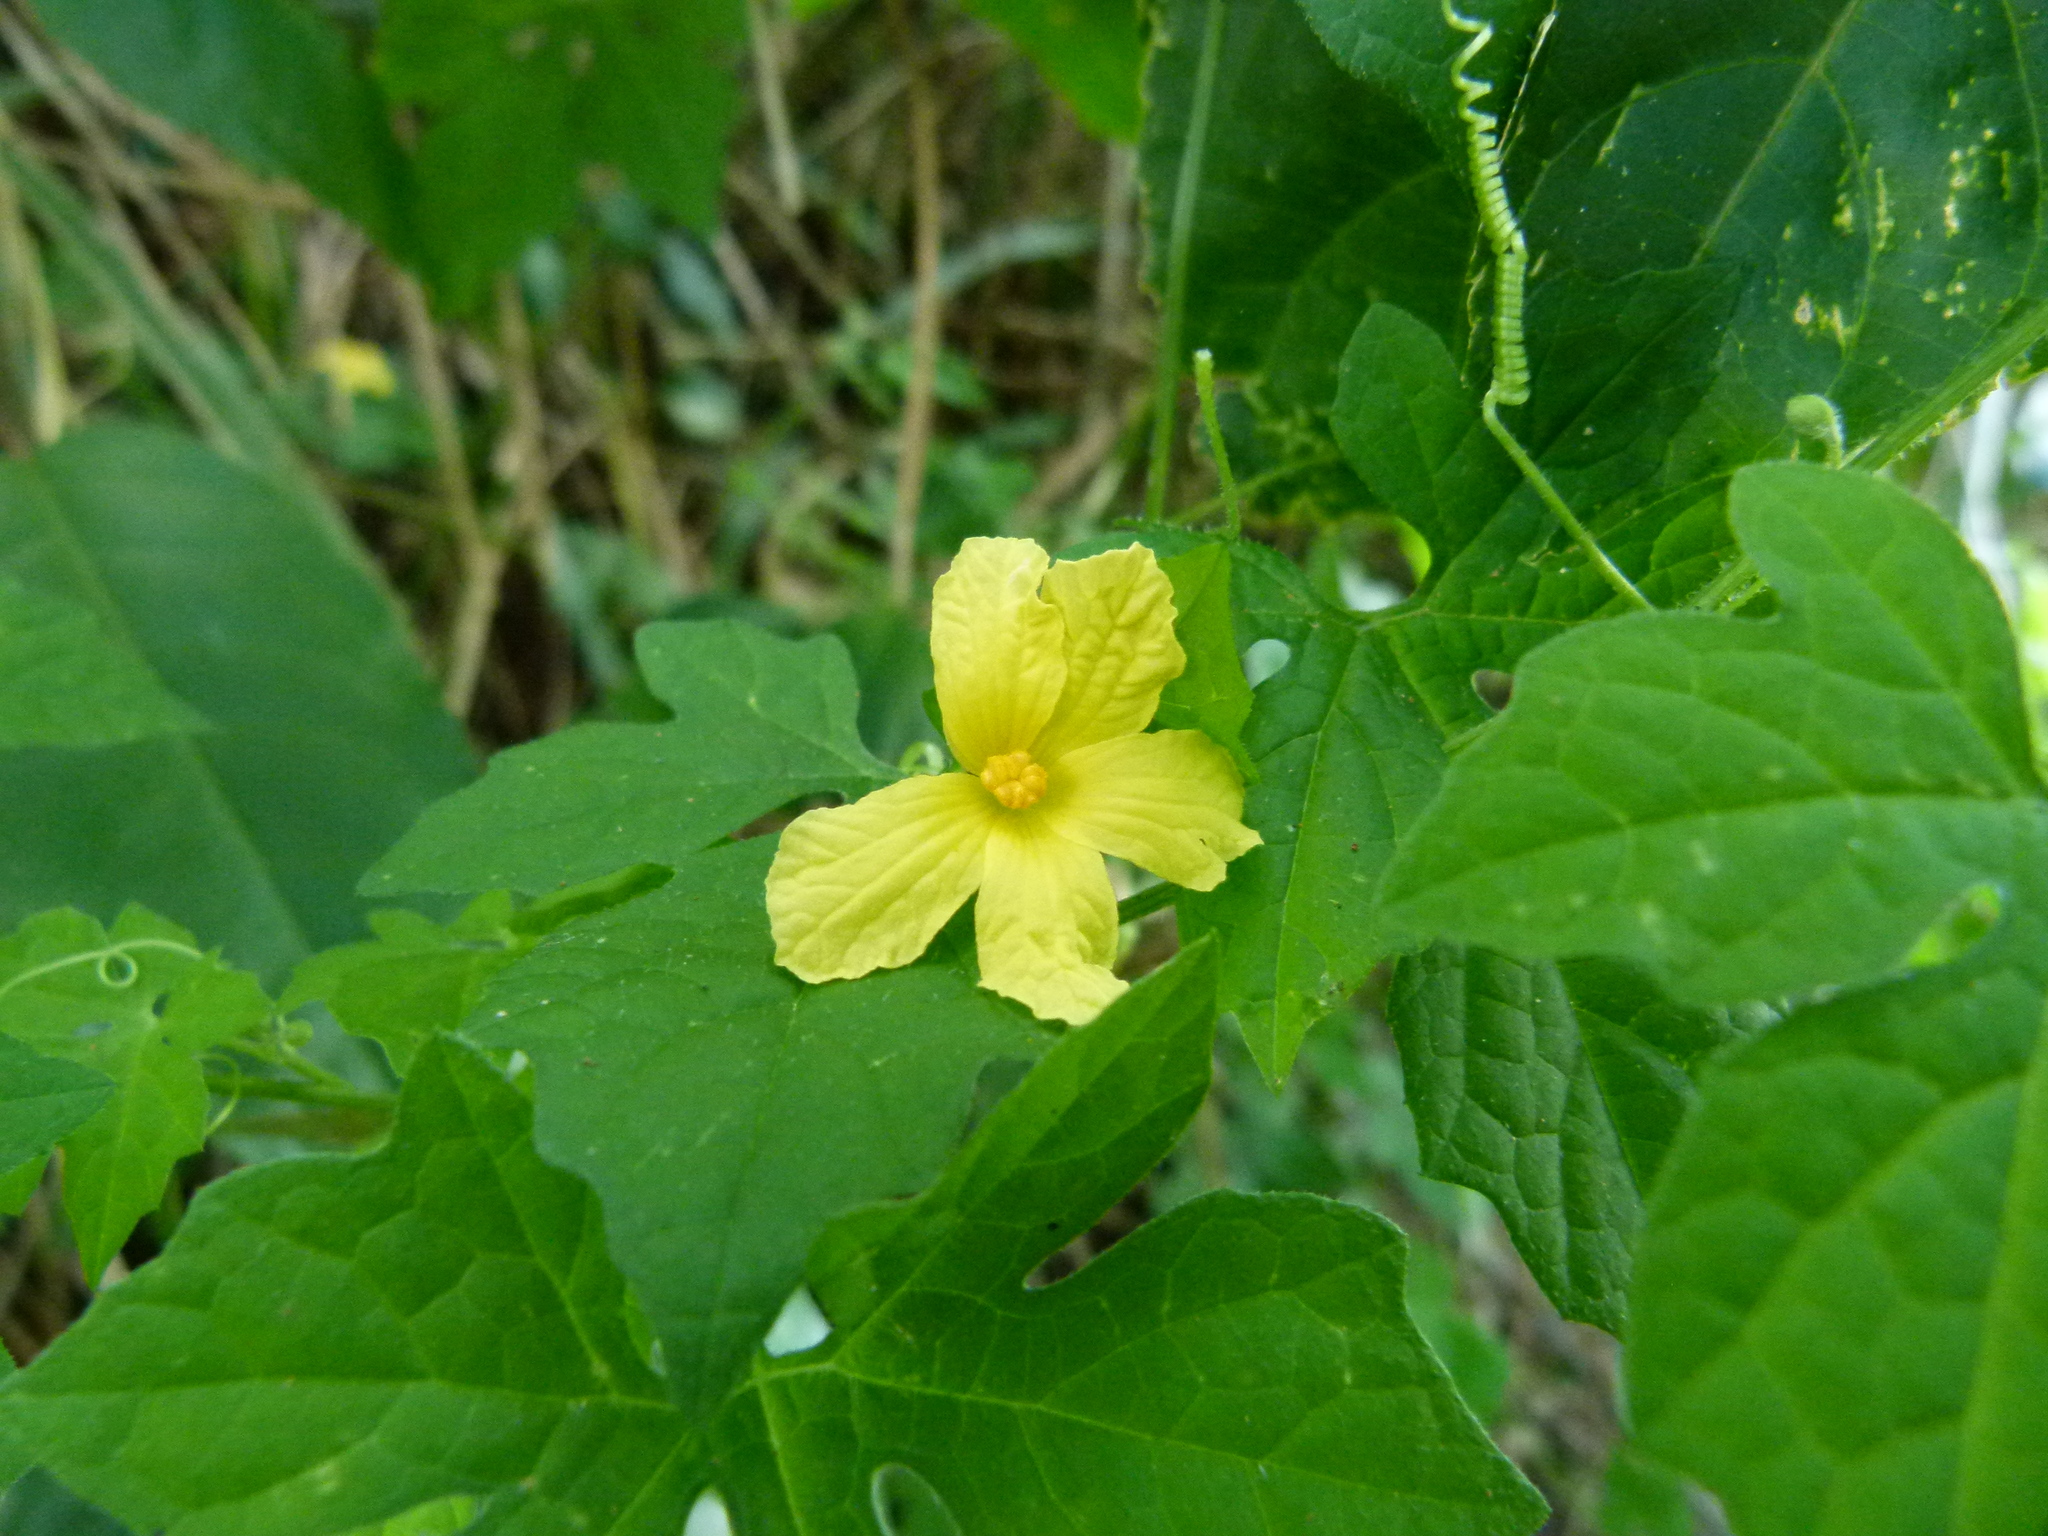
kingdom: Plantae
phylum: Tracheophyta
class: Magnoliopsida
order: Cucurbitales
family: Cucurbitaceae
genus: Momordica
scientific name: Momordica charantia
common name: Balsampear
